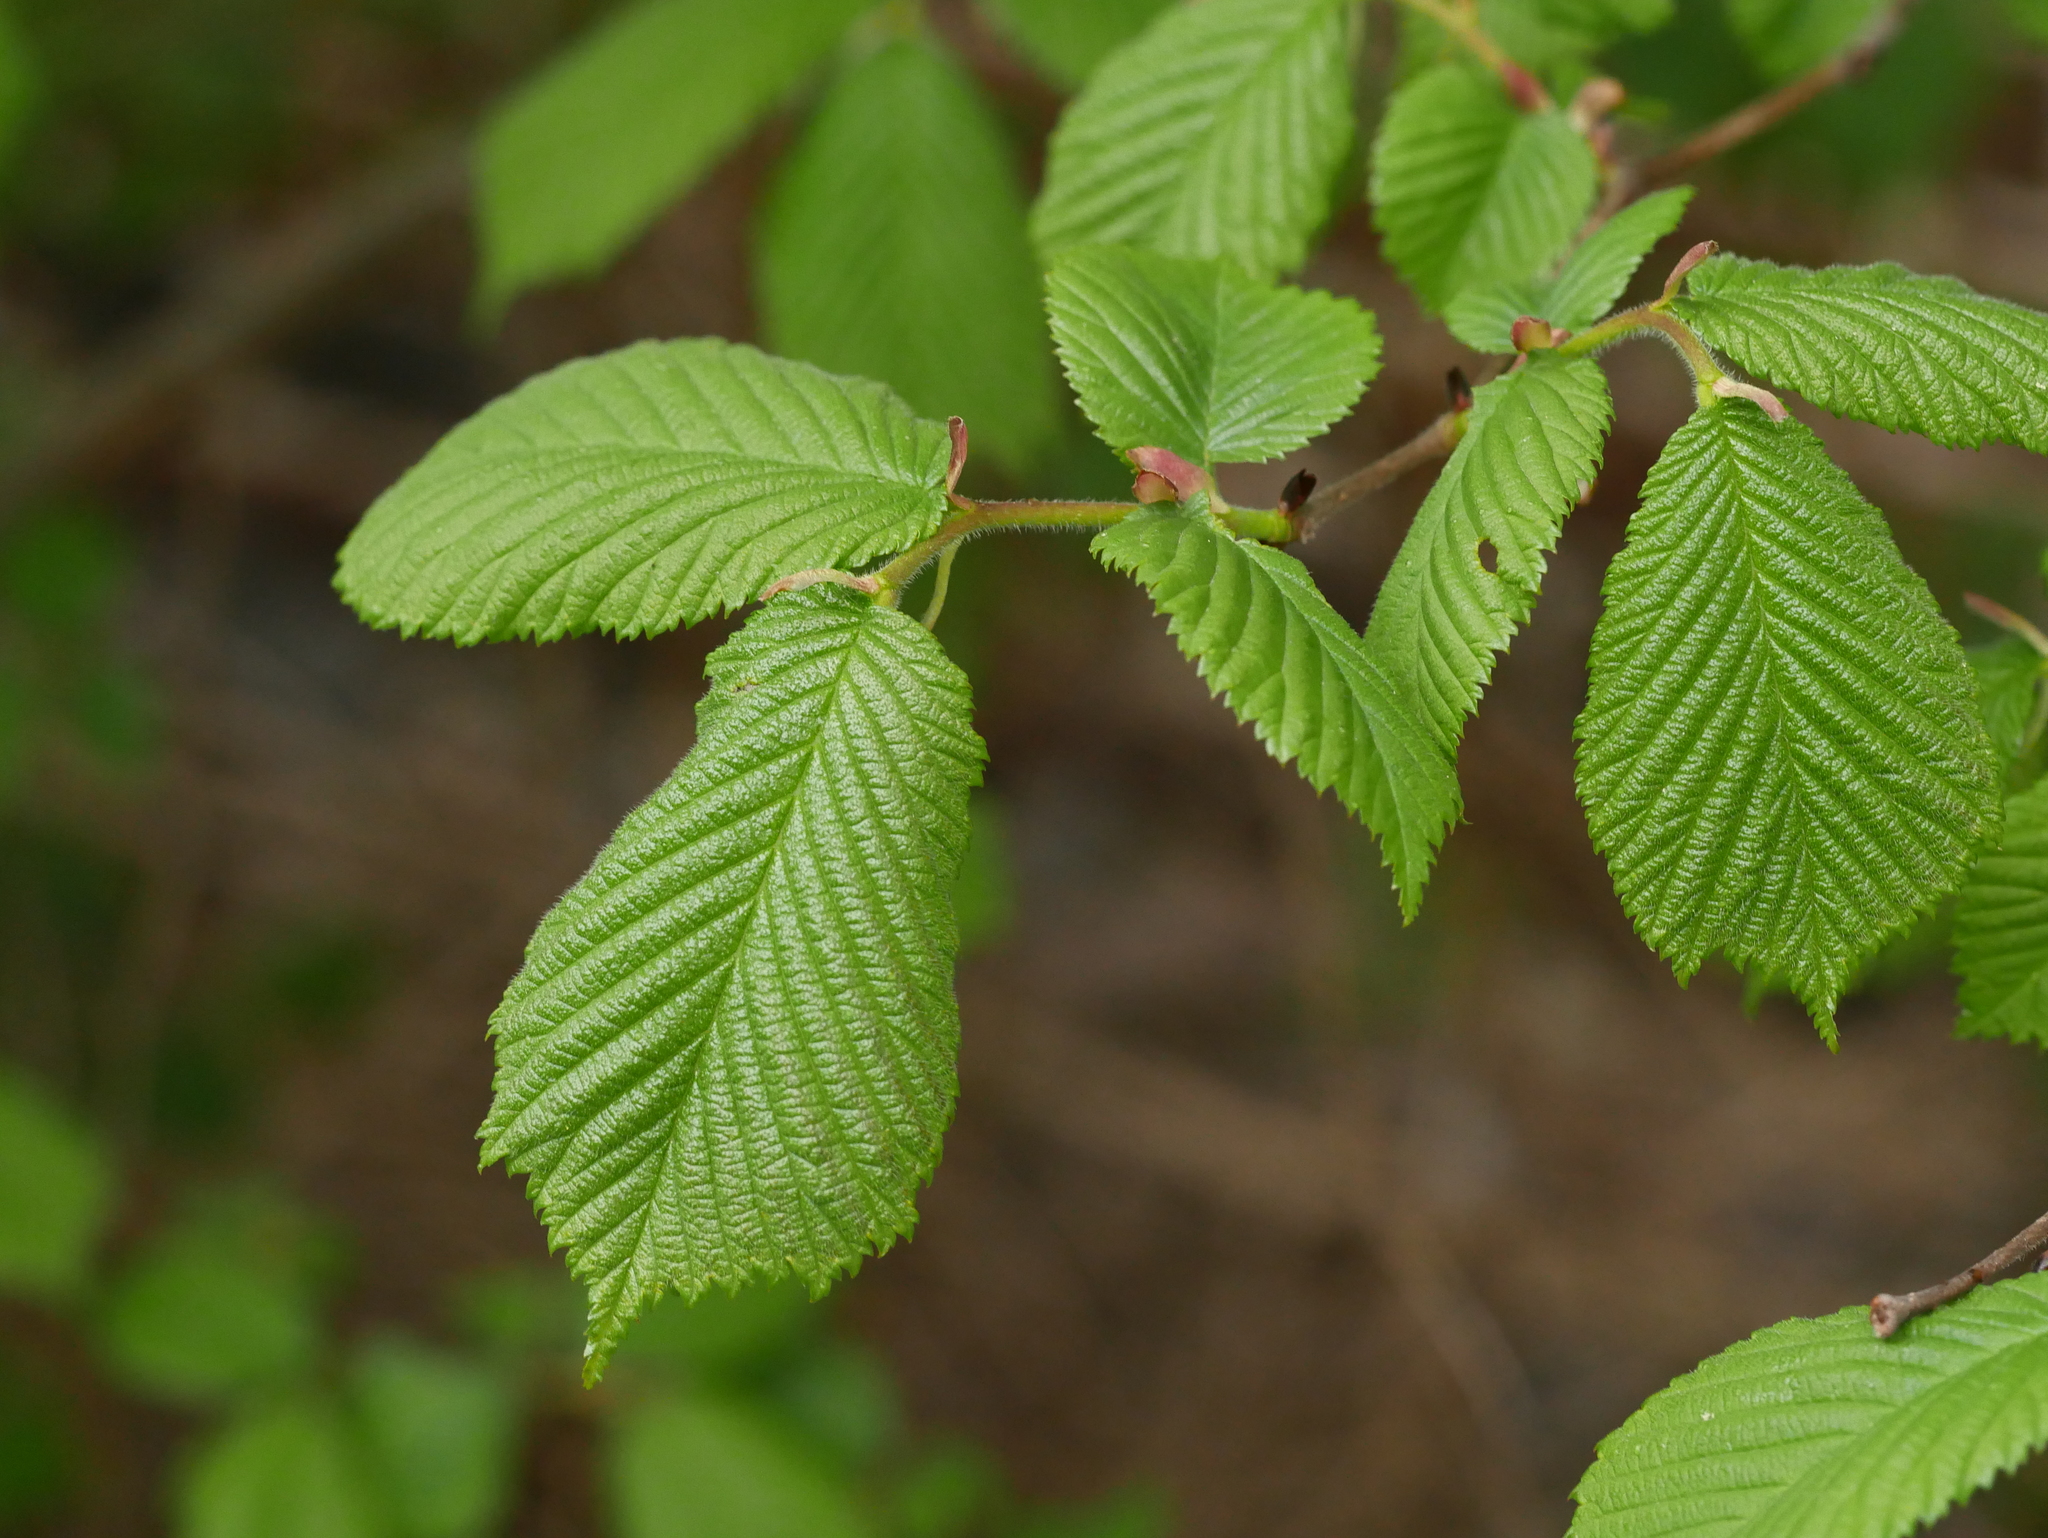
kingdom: Plantae
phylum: Tracheophyta
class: Magnoliopsida
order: Rosales
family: Ulmaceae
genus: Ulmus
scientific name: Ulmus glabra
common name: Wych elm
